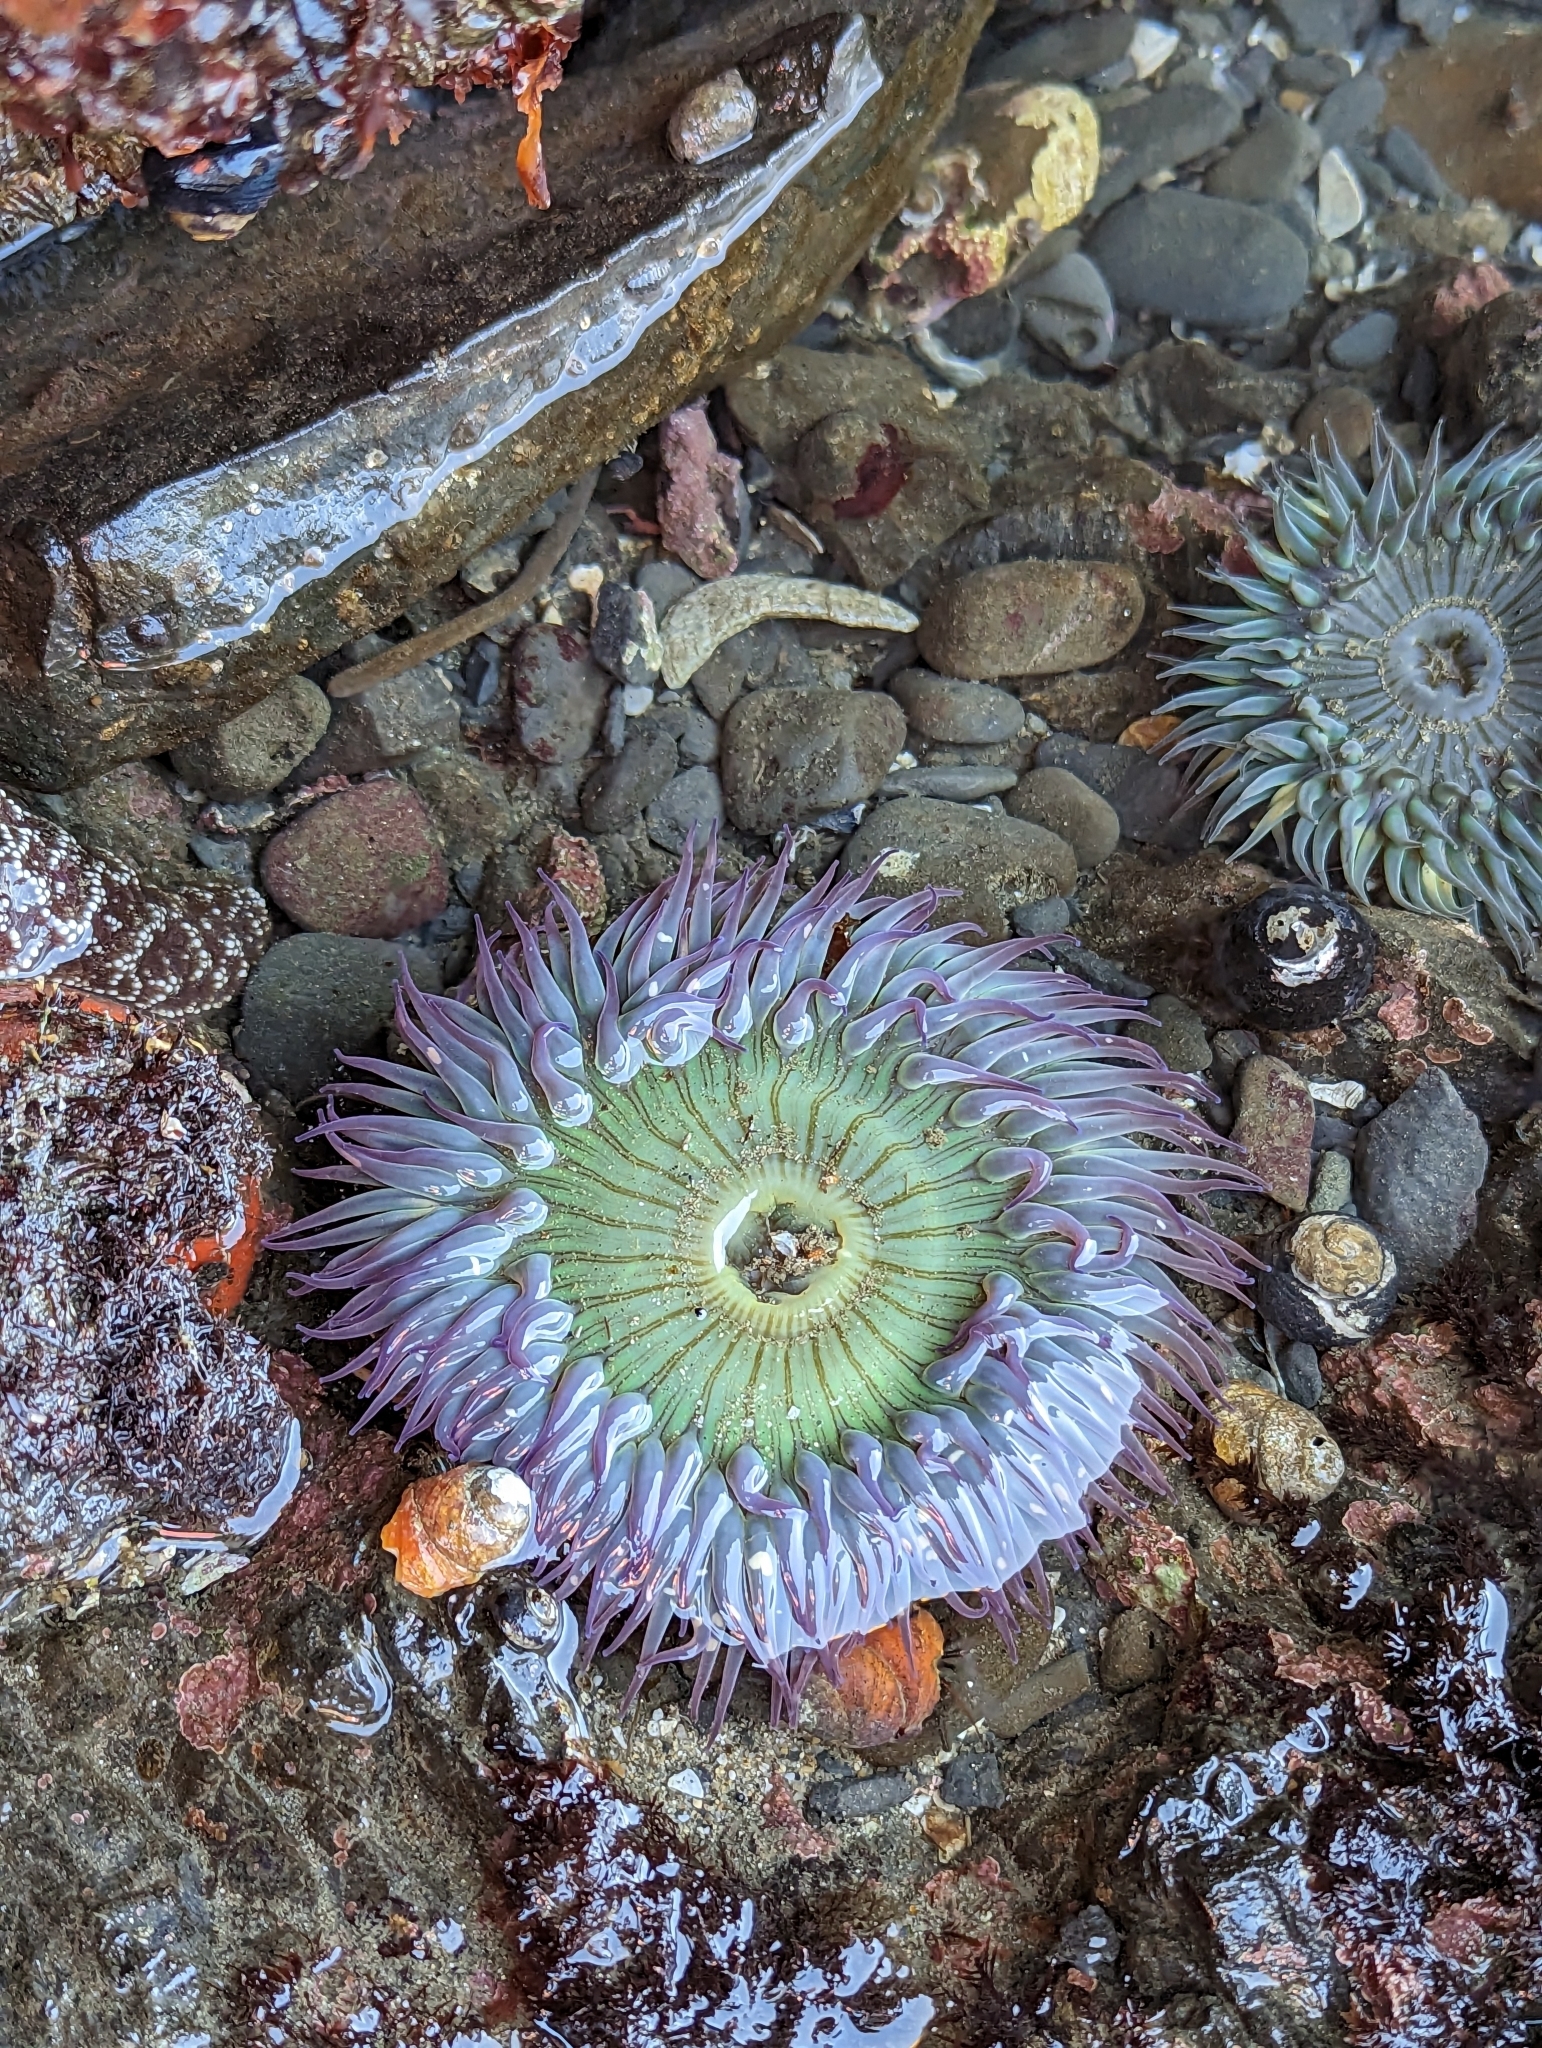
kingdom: Animalia
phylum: Cnidaria
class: Anthozoa
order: Actiniaria
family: Actiniidae
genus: Anthopleura
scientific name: Anthopleura sola
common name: Sun anemone
